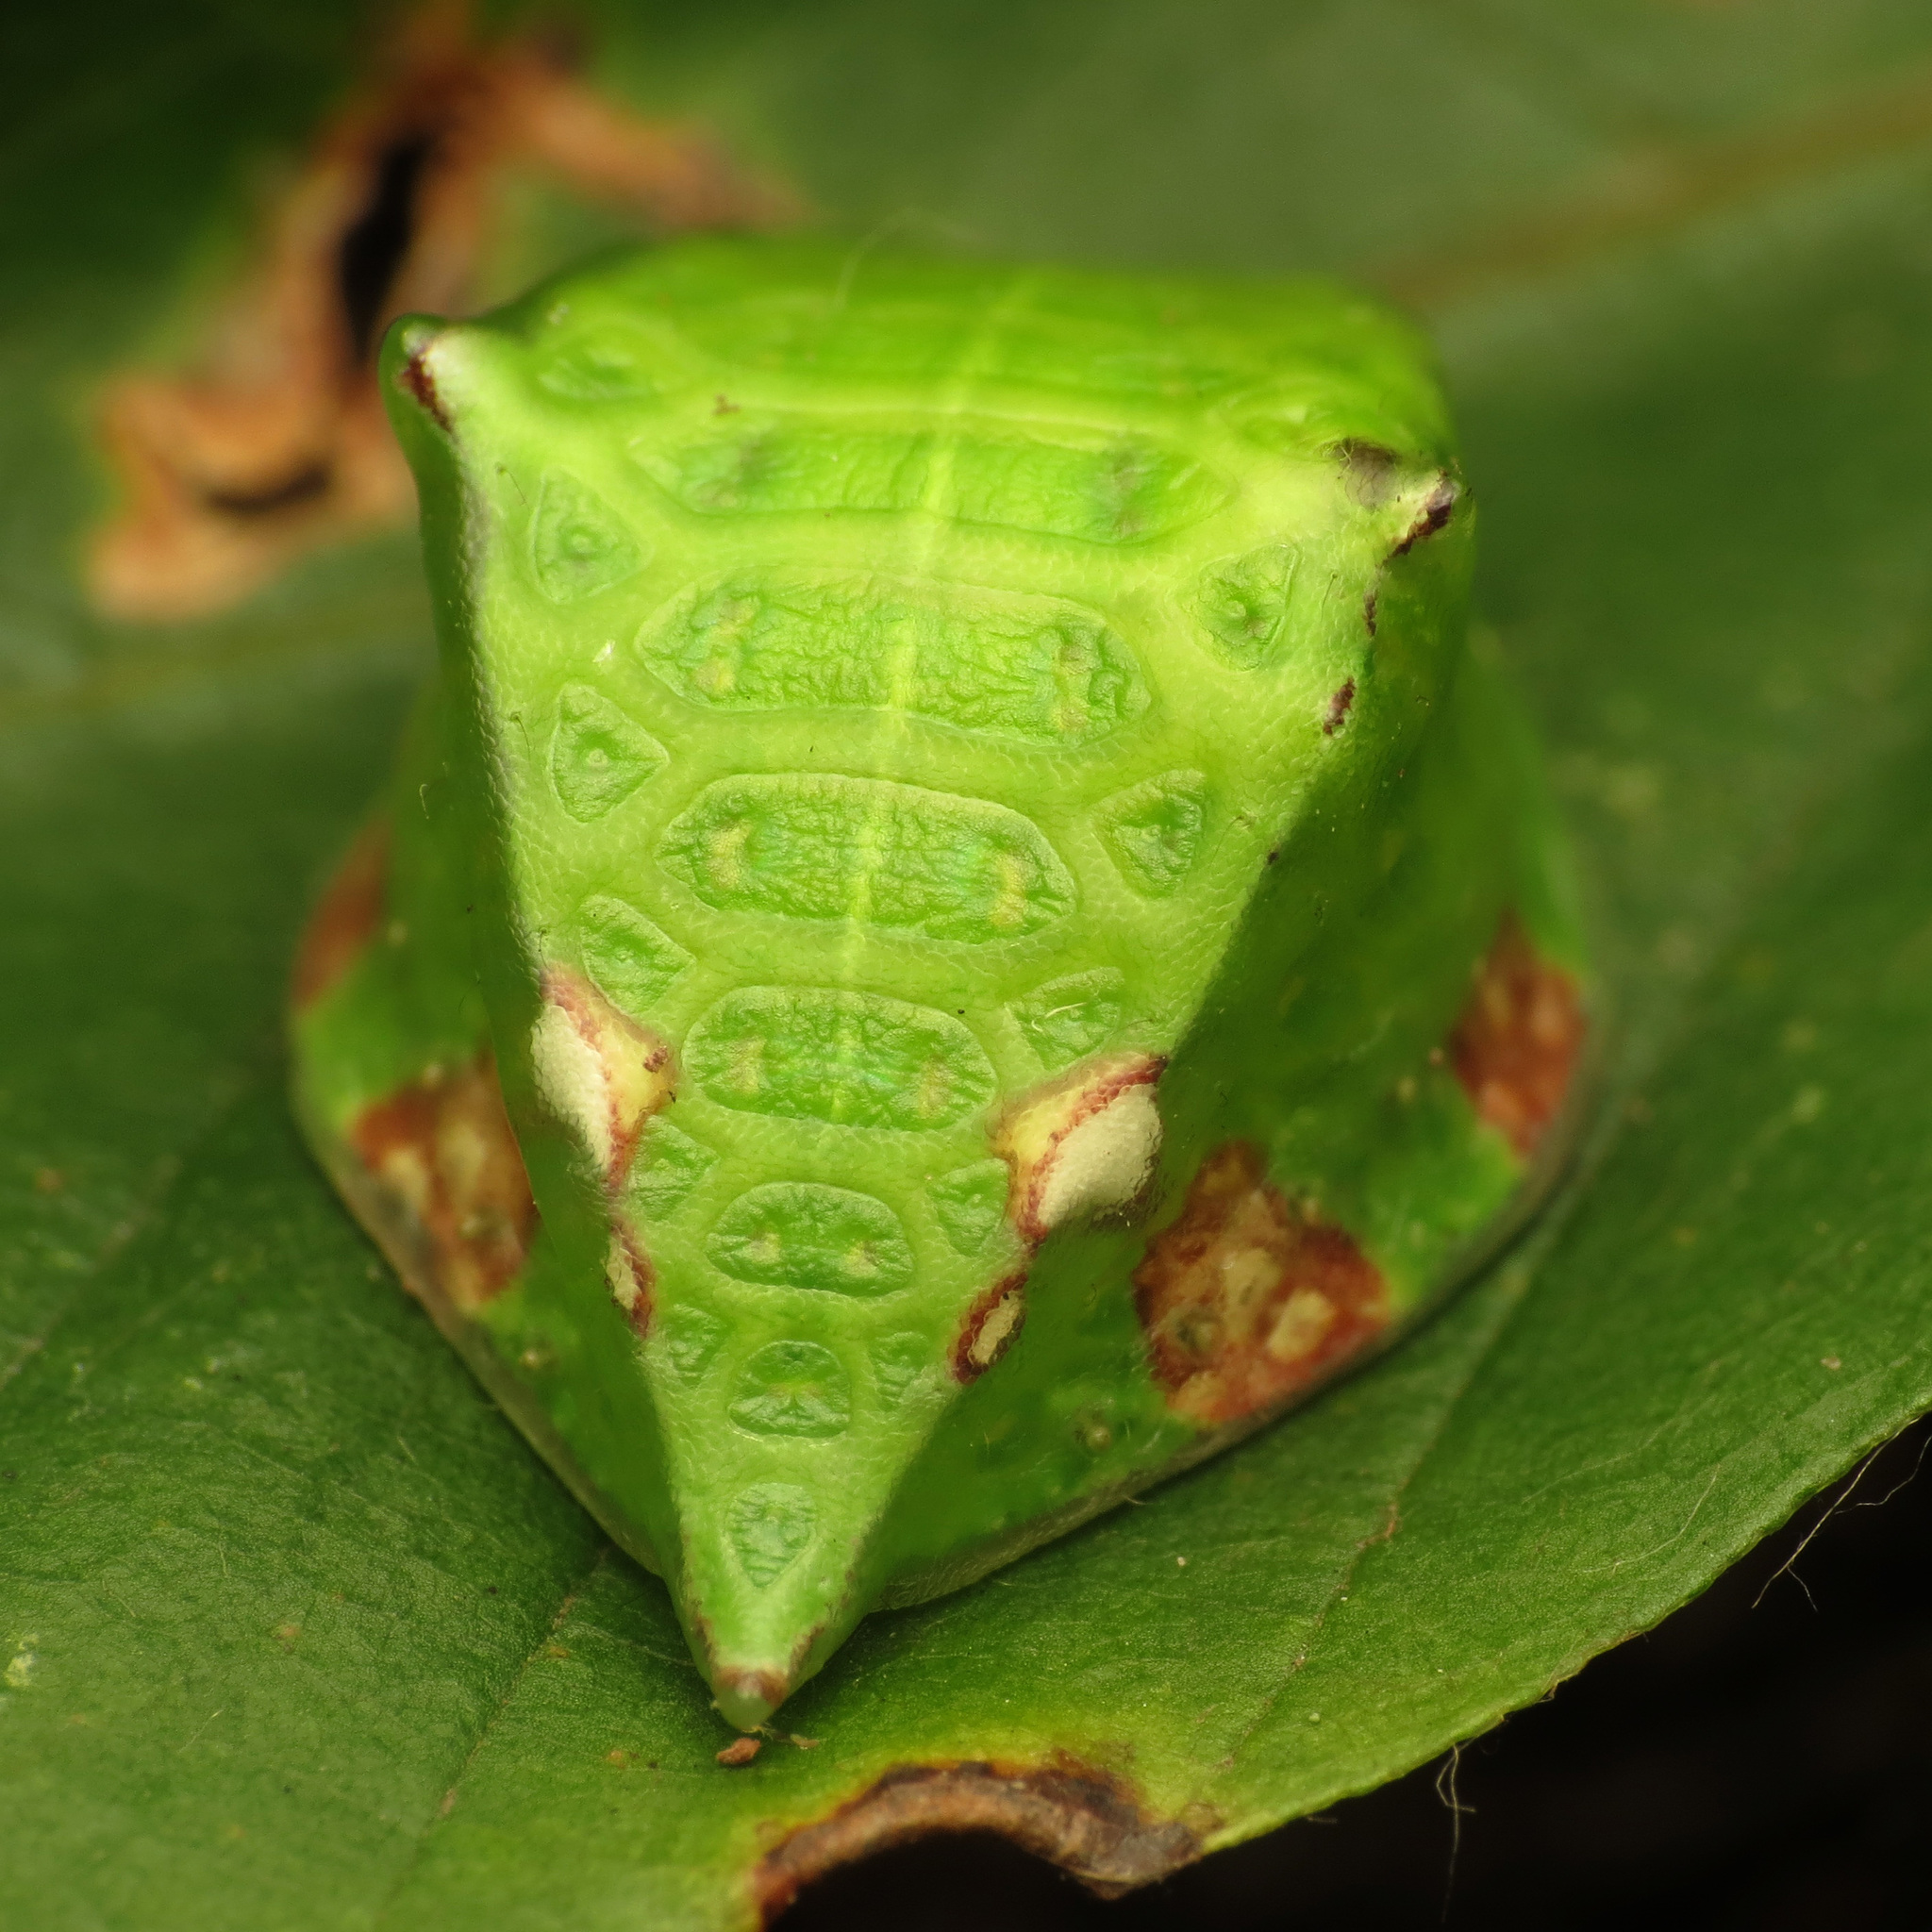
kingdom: Animalia
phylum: Arthropoda
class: Insecta
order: Lepidoptera
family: Limacodidae
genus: Prolimacodes
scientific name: Prolimacodes badia
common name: Skiff moth
